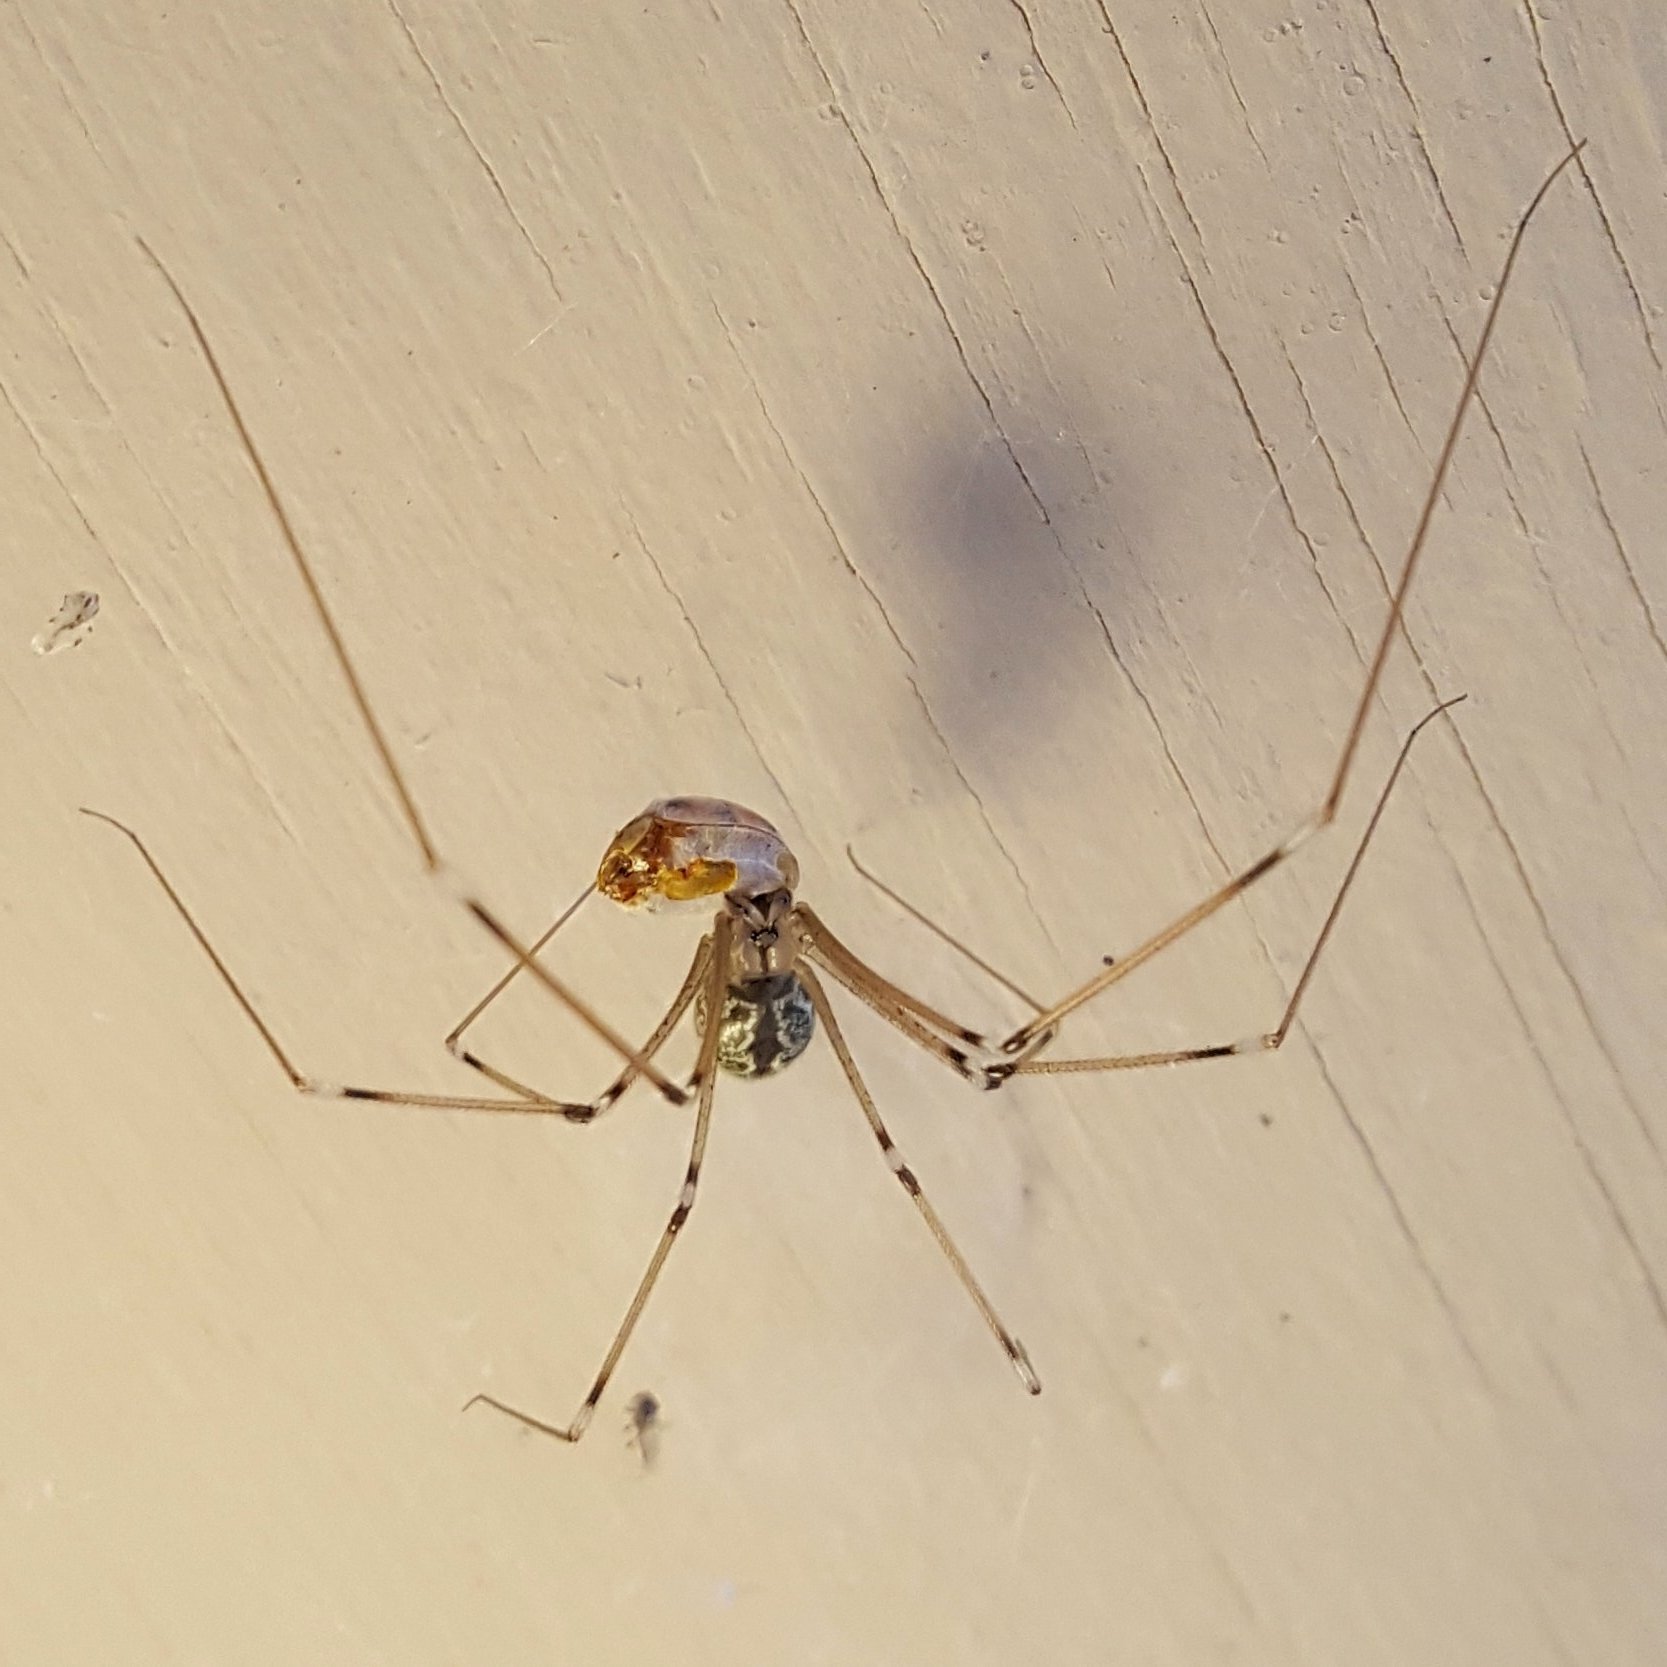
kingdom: Animalia
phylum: Arthropoda
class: Arachnida
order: Araneae
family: Pholcidae
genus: Holocnemus
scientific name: Holocnemus pluchei
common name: Marbled cellar spider
